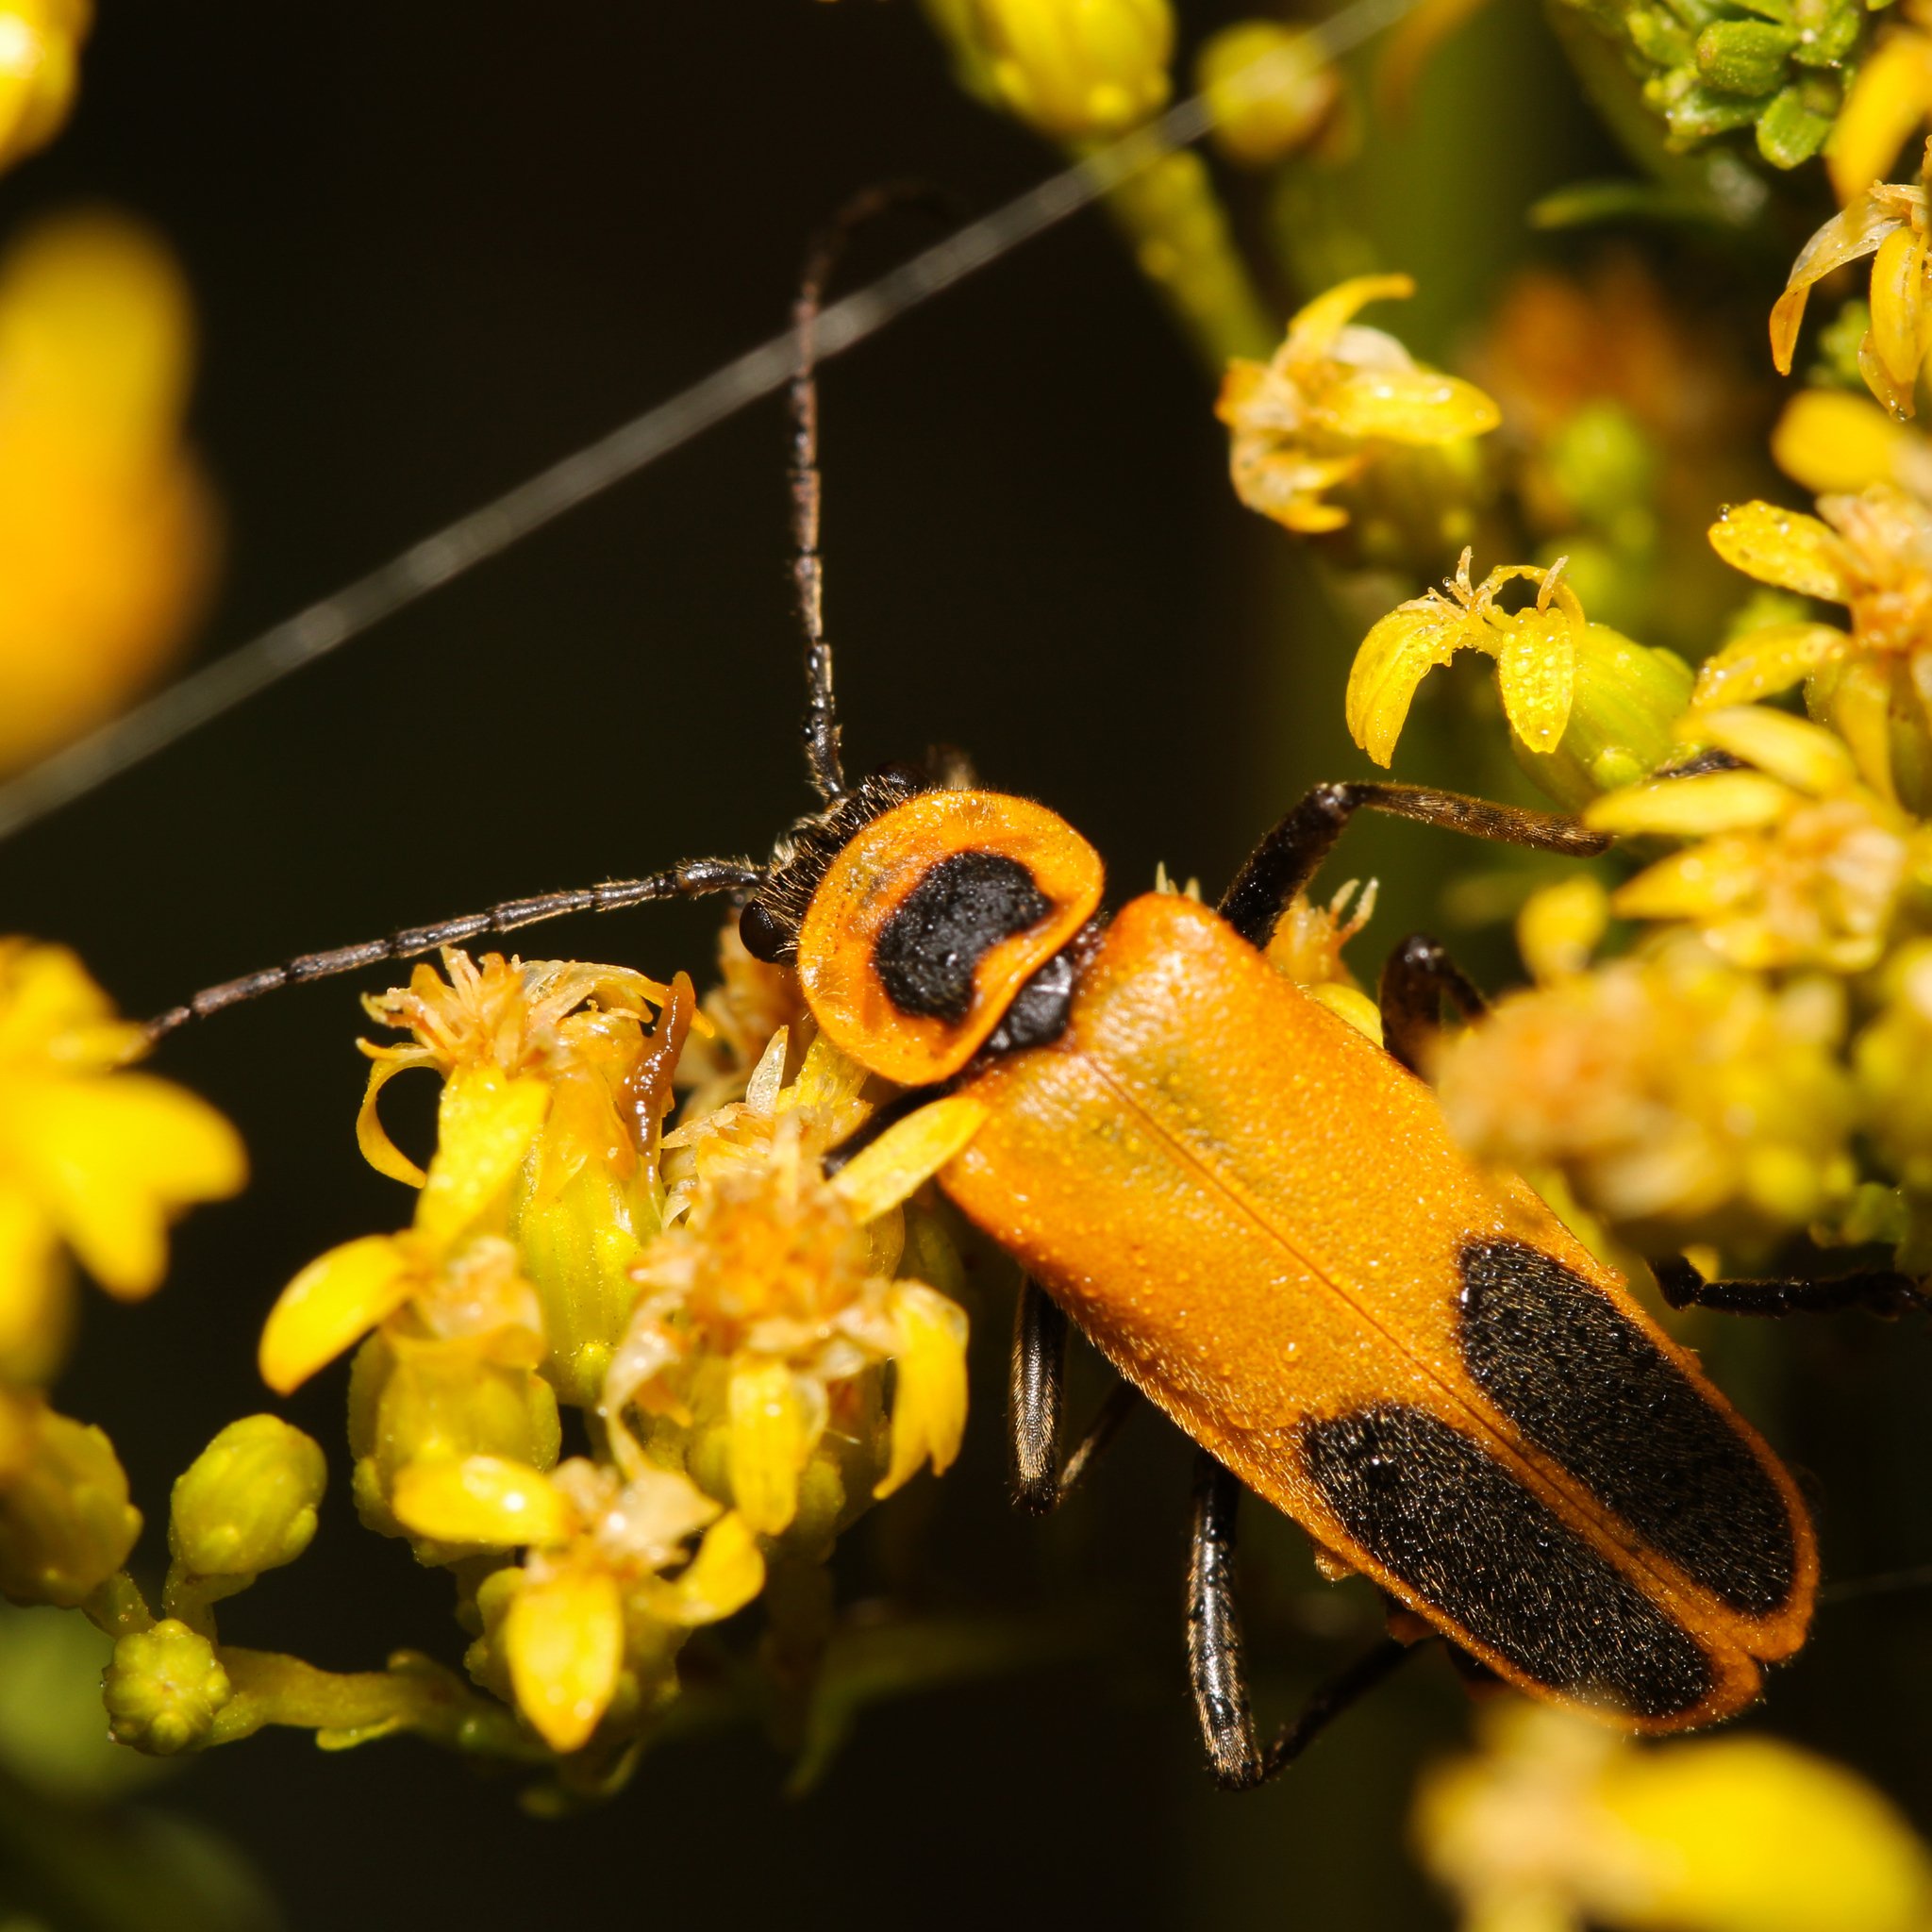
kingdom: Animalia
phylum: Arthropoda
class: Insecta
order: Coleoptera
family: Cantharidae
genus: Chauliognathus
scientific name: Chauliognathus pensylvanicus
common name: Goldenrod soldier beetle
